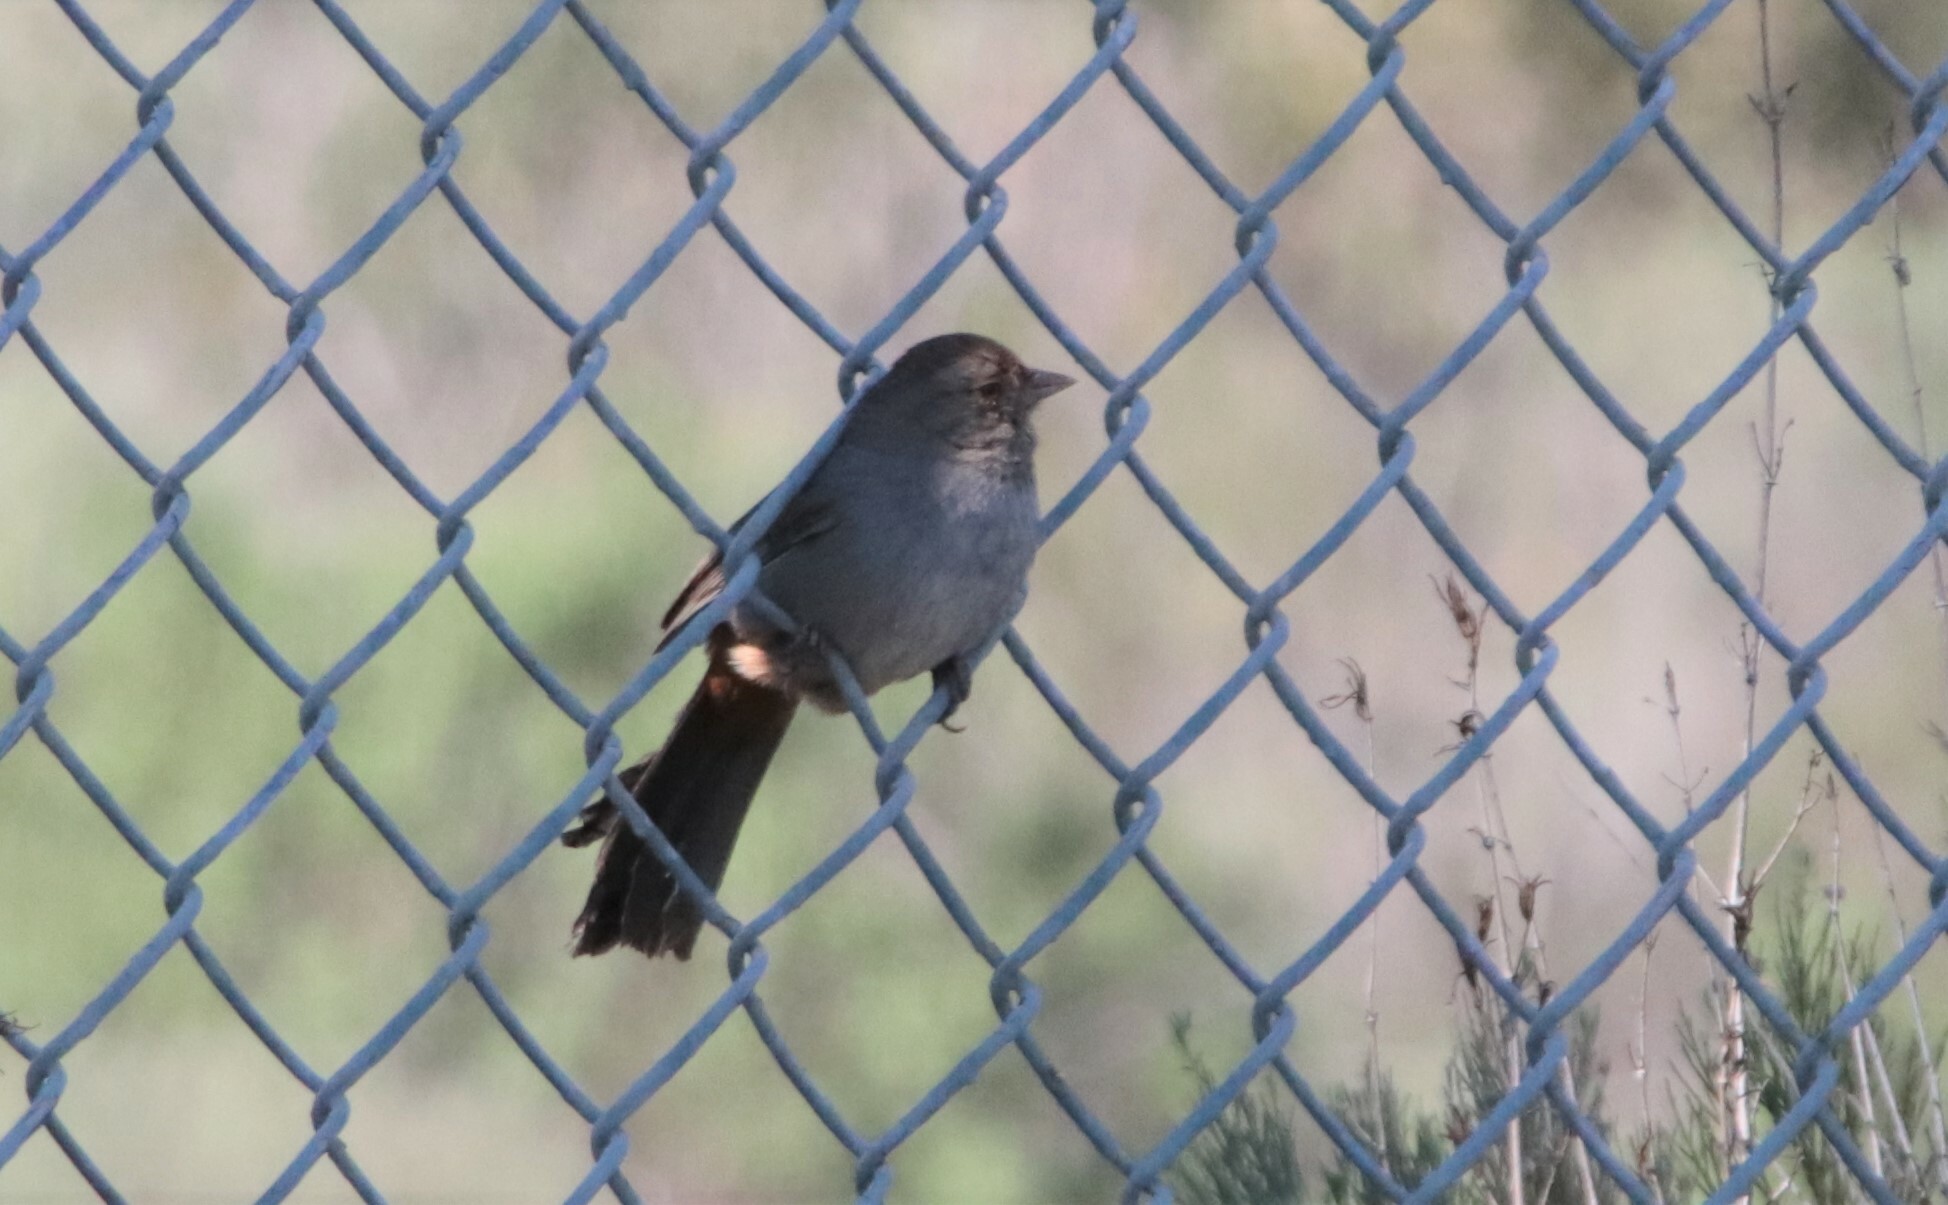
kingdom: Animalia
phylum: Chordata
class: Aves
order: Passeriformes
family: Passerellidae
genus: Melozone
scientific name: Melozone crissalis
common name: California towhee
